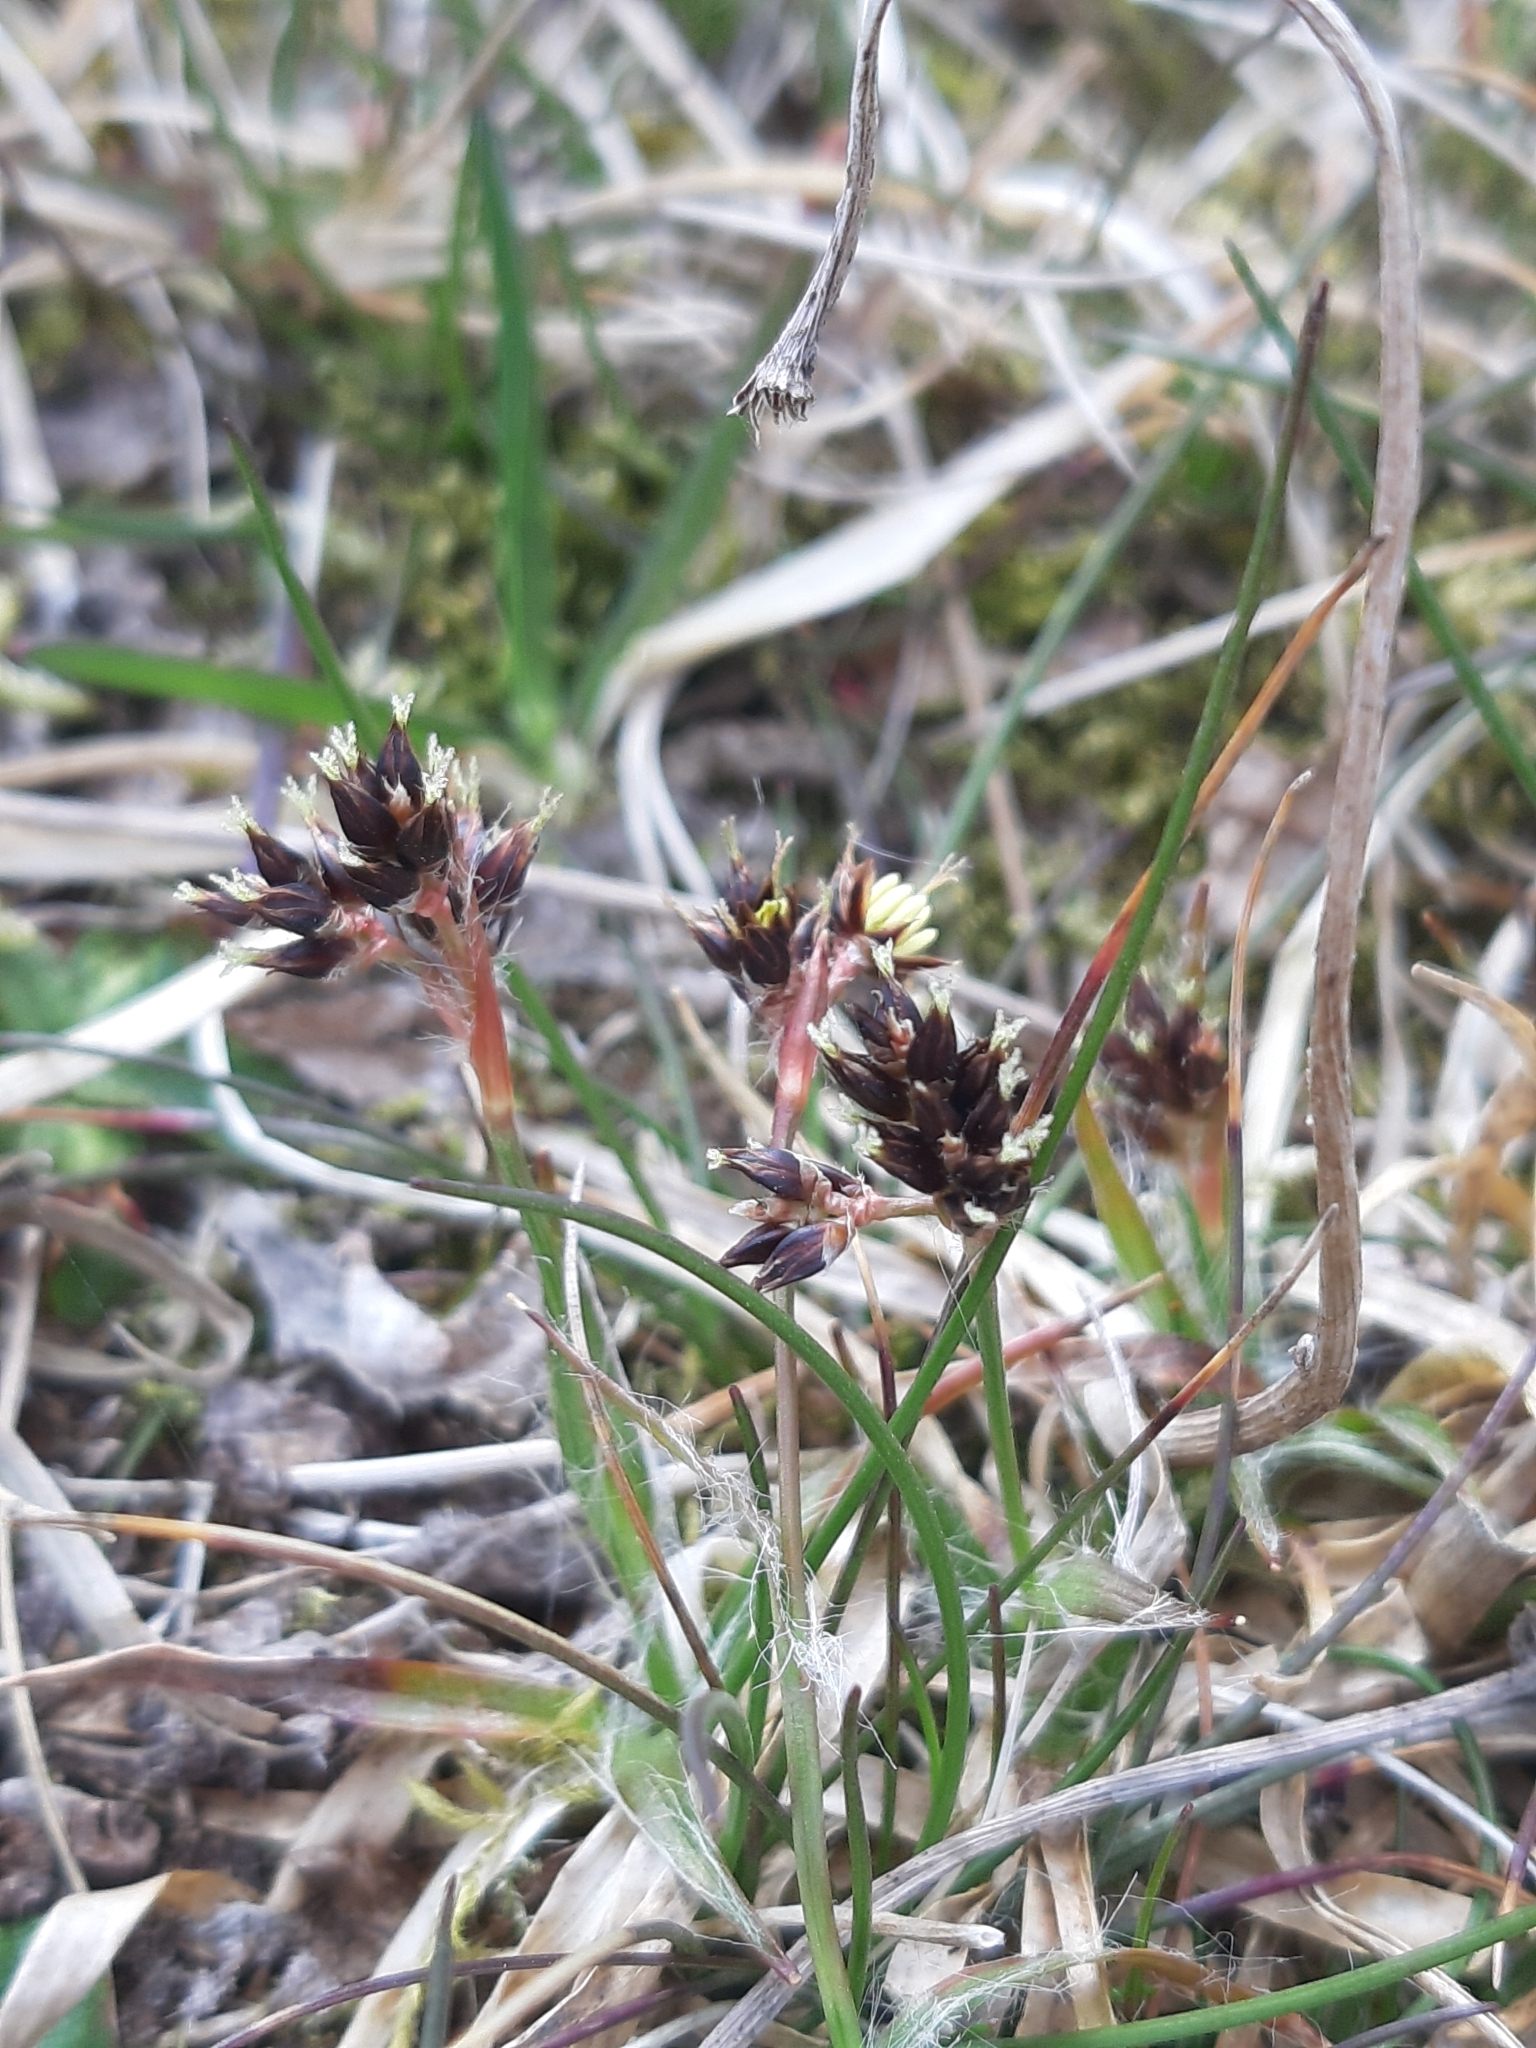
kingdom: Plantae
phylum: Tracheophyta
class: Liliopsida
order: Poales
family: Juncaceae
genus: Luzula
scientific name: Luzula campestris
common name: Field wood-rush
